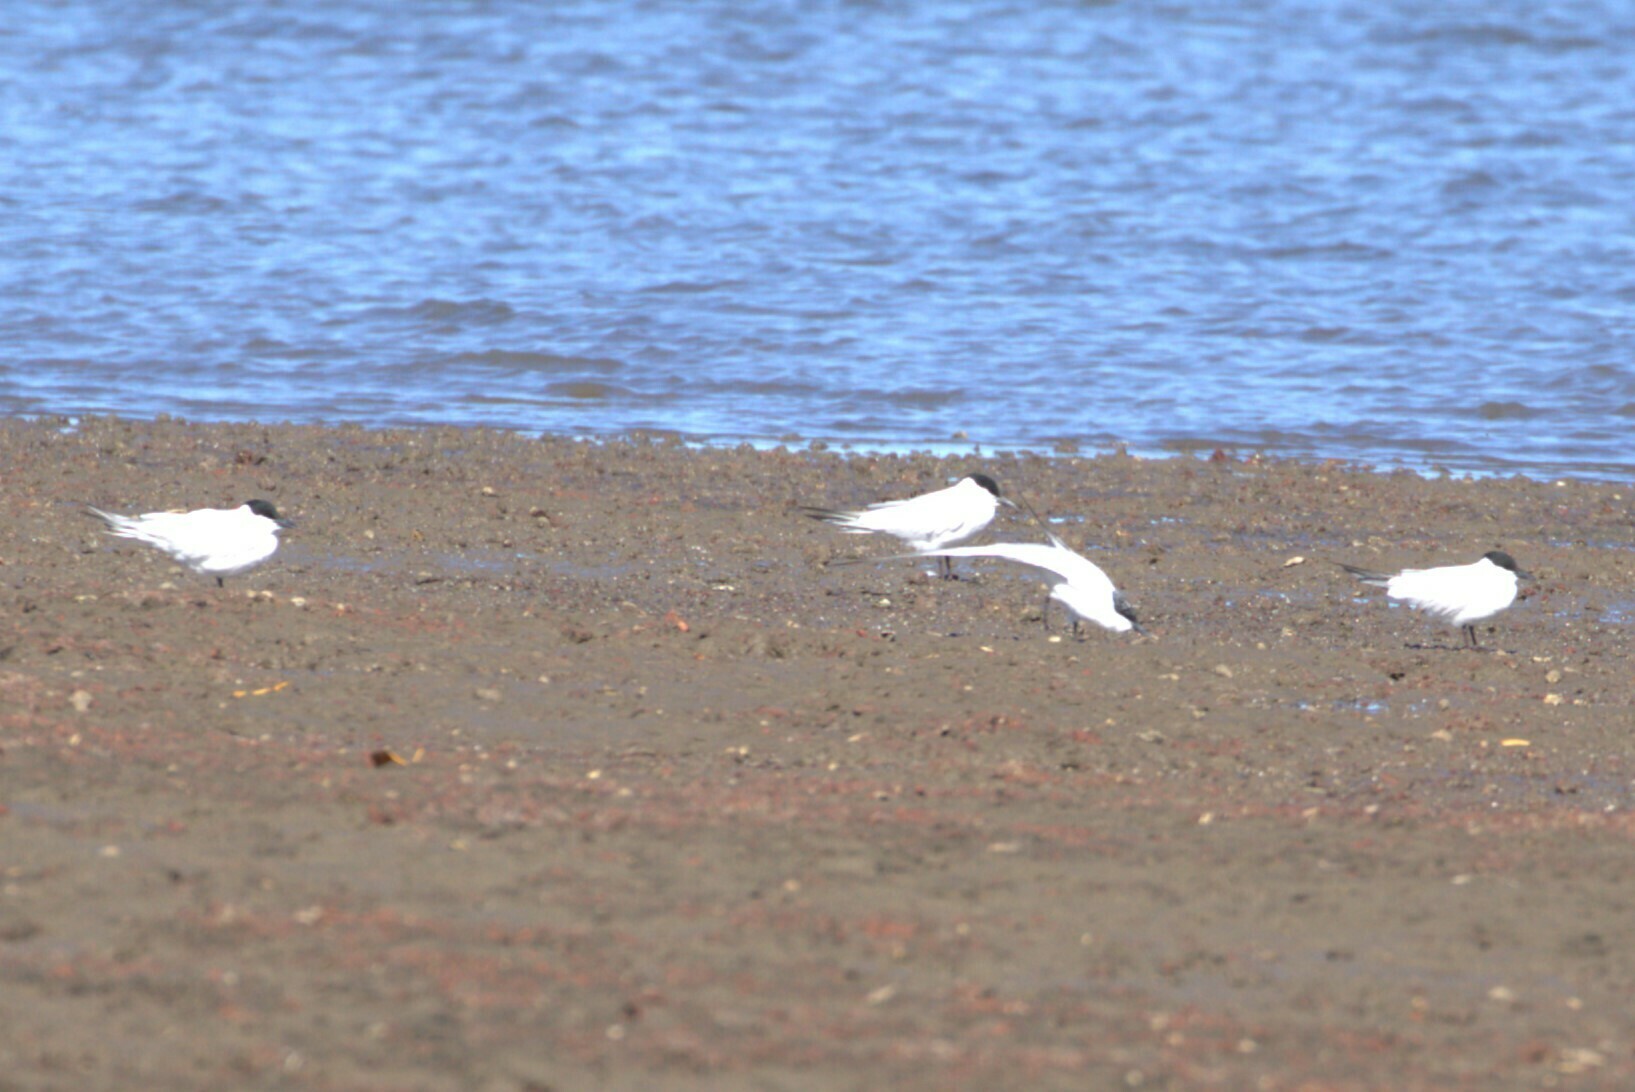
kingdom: Animalia
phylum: Chordata
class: Aves
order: Charadriiformes
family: Laridae
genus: Gelochelidon
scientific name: Gelochelidon macrotarsa
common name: Australian tern
